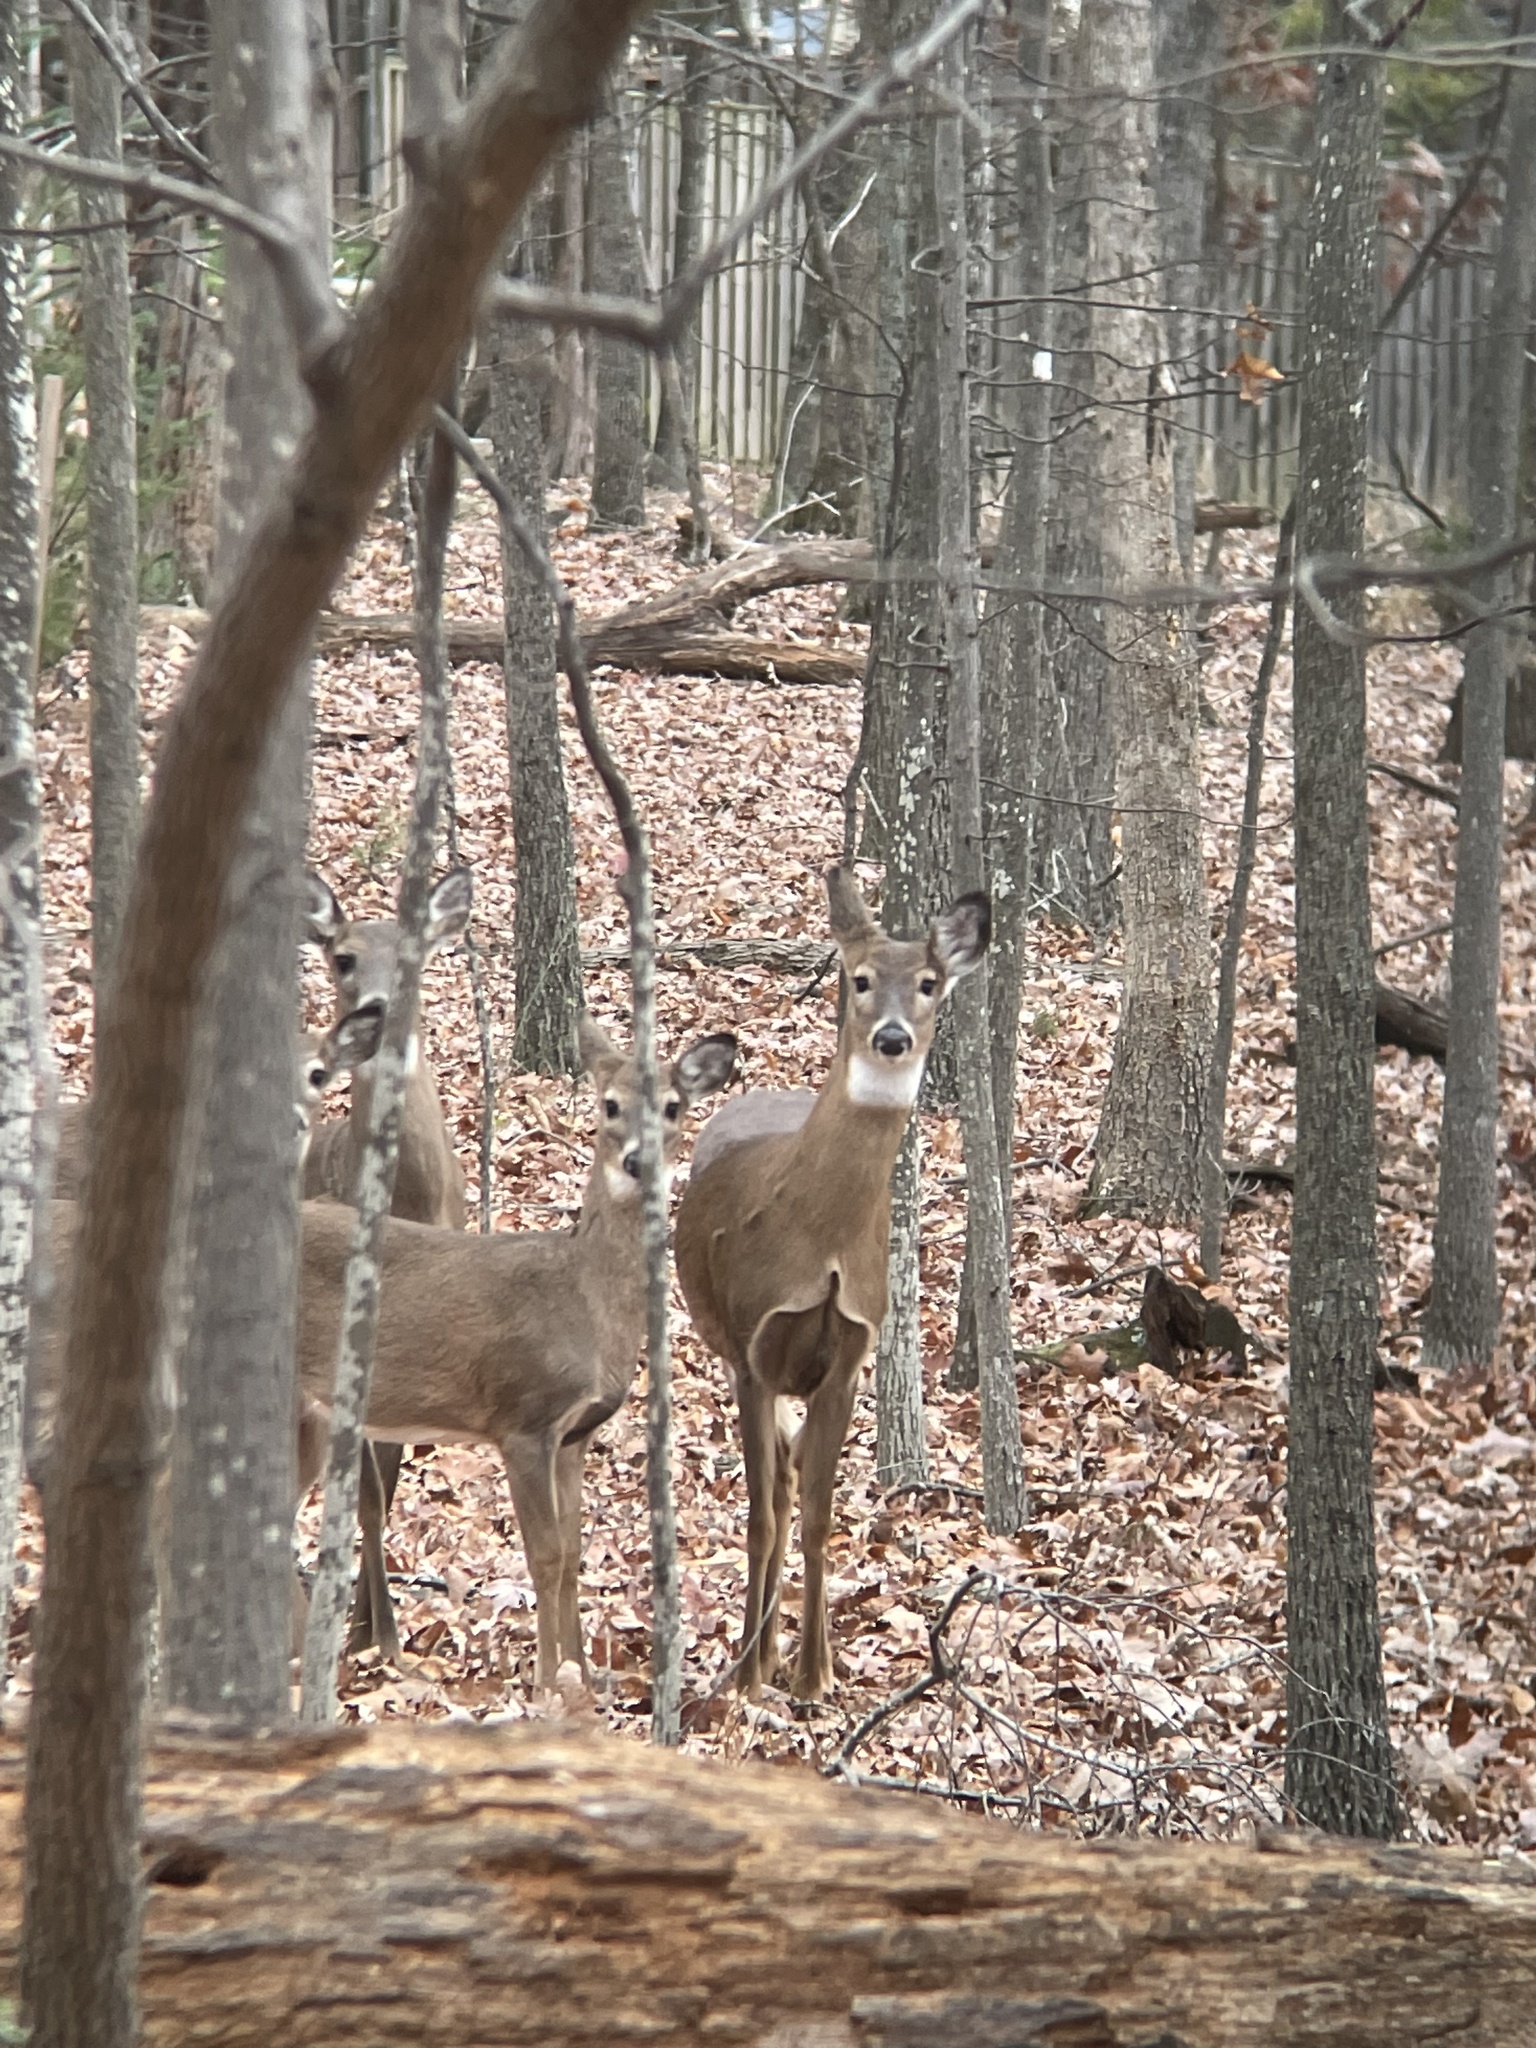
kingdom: Animalia
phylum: Chordata
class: Mammalia
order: Artiodactyla
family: Cervidae
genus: Odocoileus
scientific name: Odocoileus virginianus
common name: White-tailed deer
